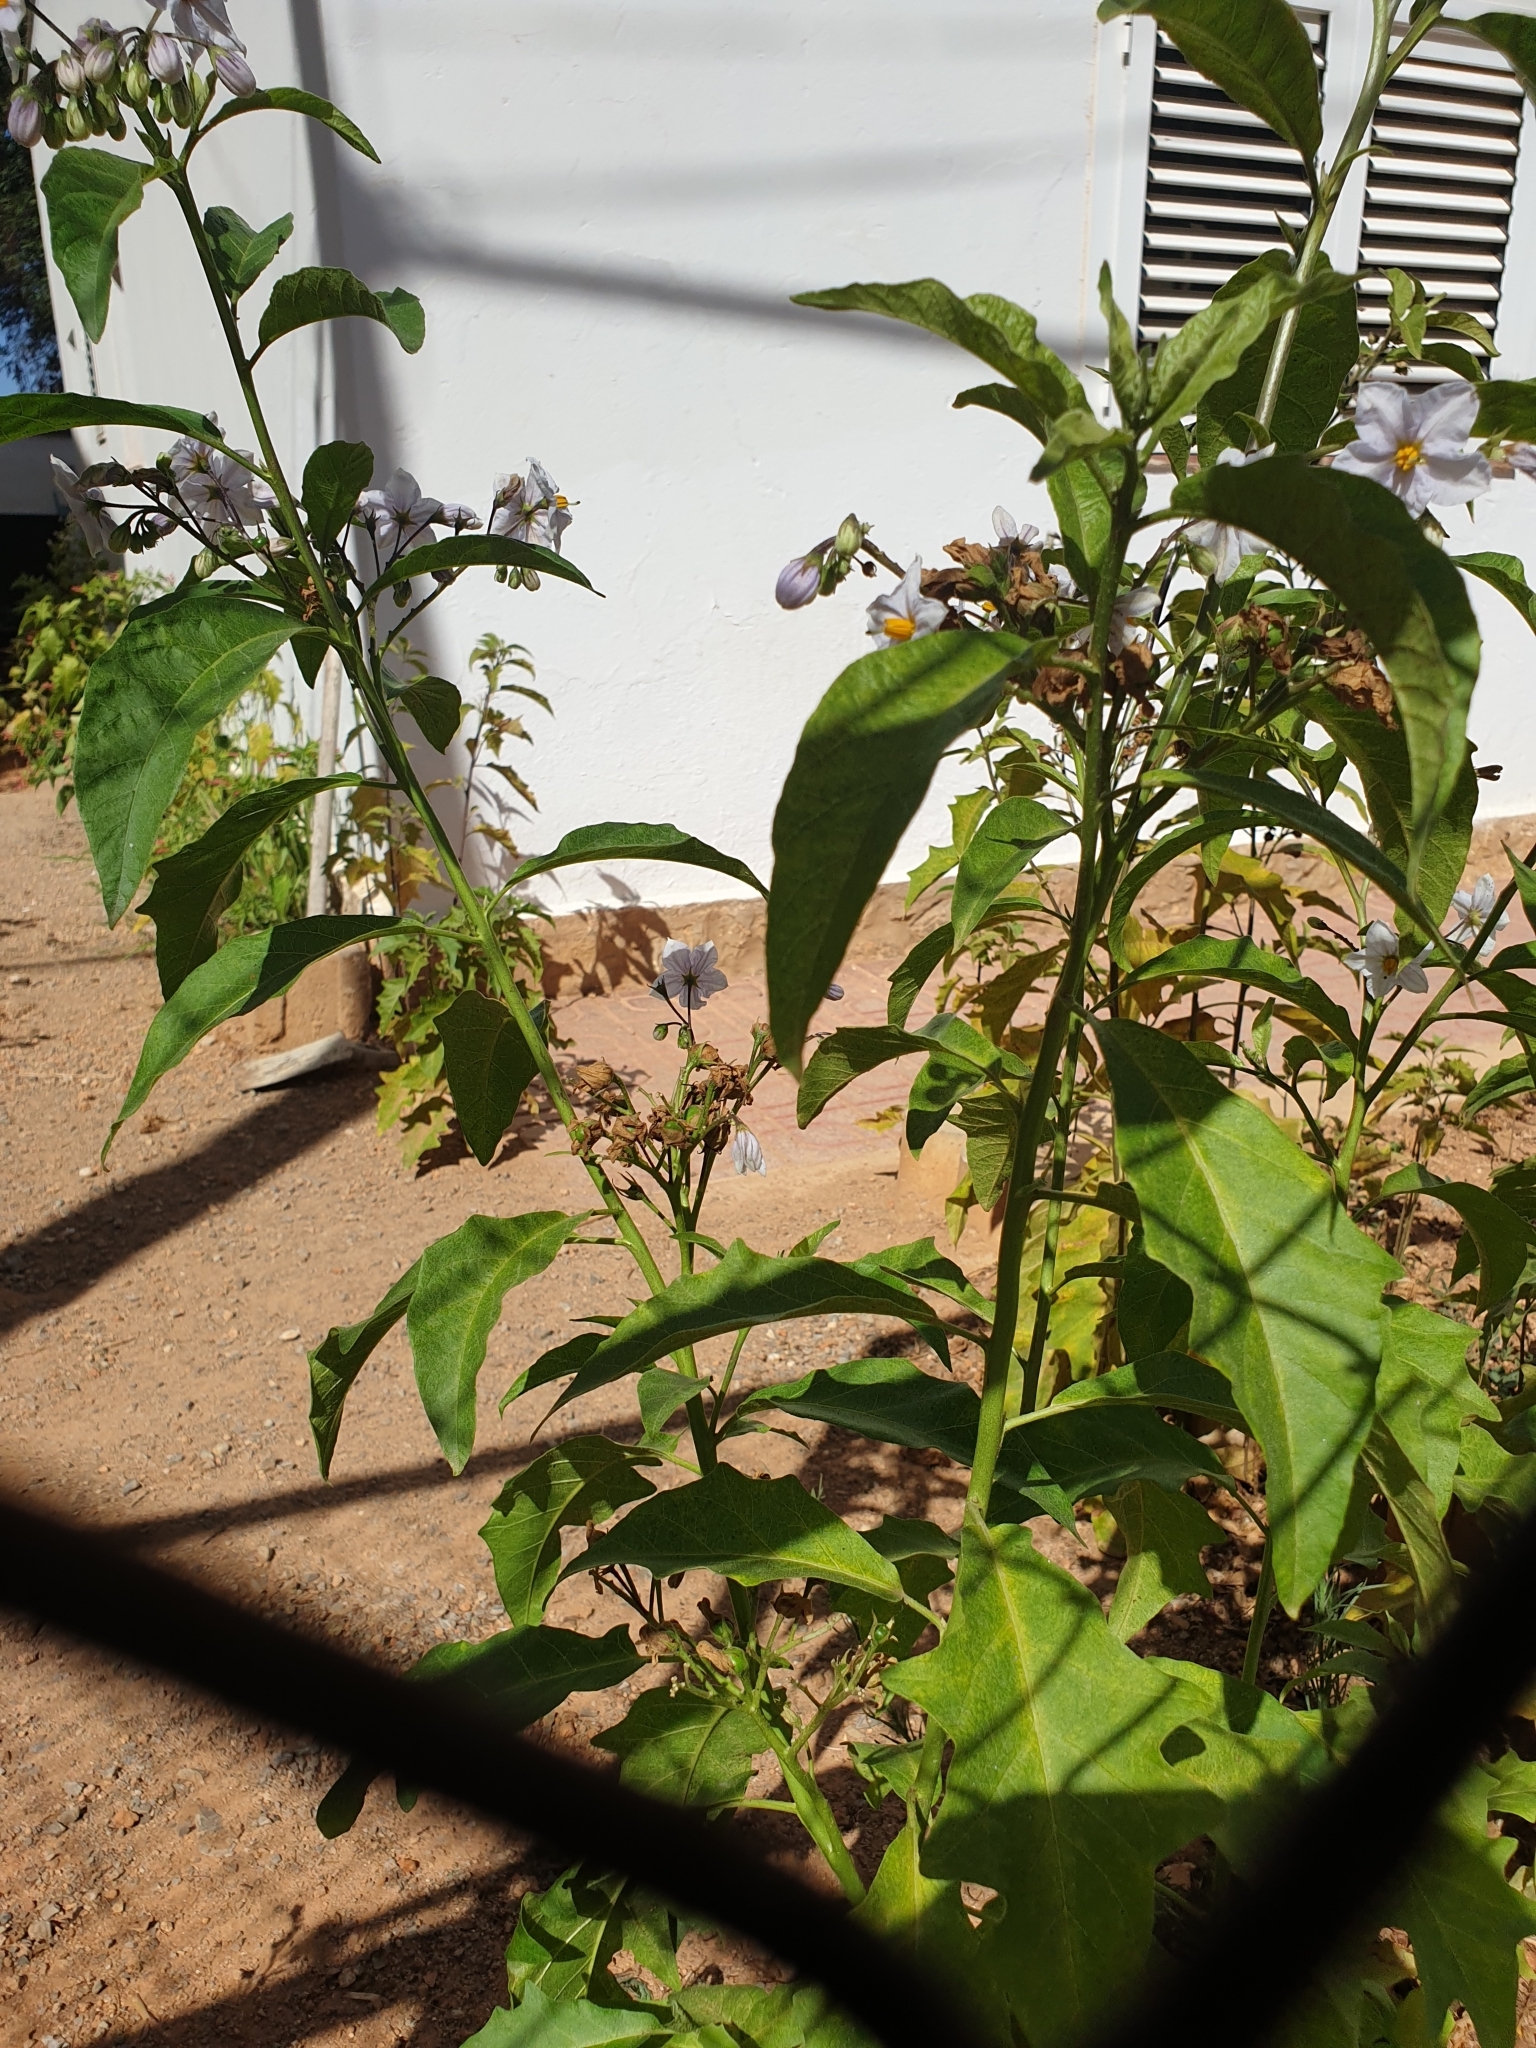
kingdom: Plantae
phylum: Tracheophyta
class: Magnoliopsida
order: Solanales
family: Solanaceae
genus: Solanum
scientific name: Solanum bonariense
